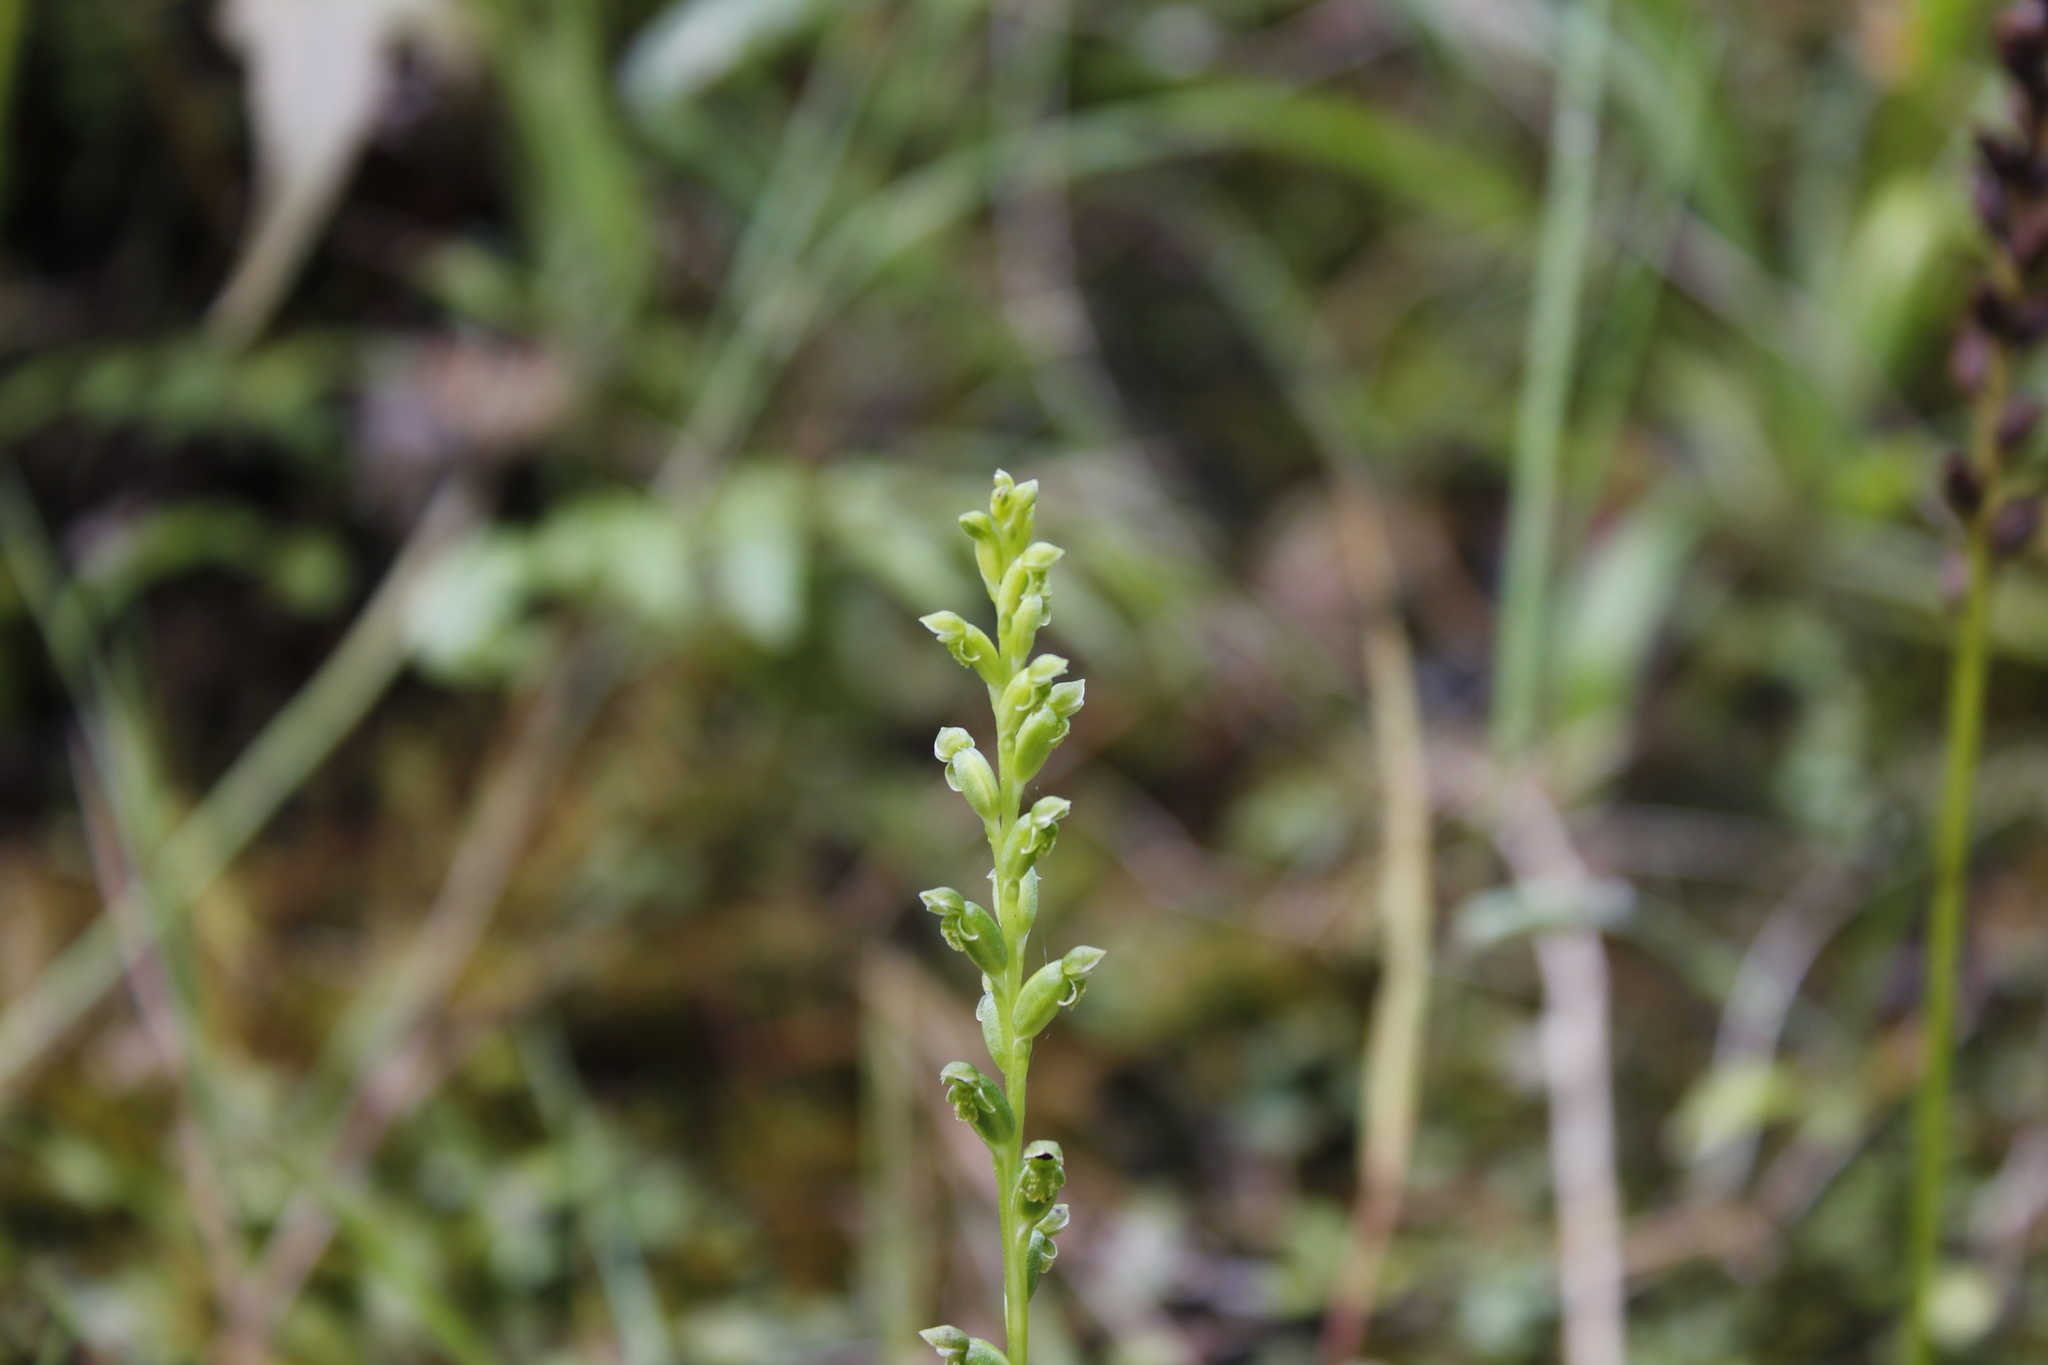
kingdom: Plantae
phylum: Tracheophyta
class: Liliopsida
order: Asparagales
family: Orchidaceae
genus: Microtis
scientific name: Microtis unifolia
